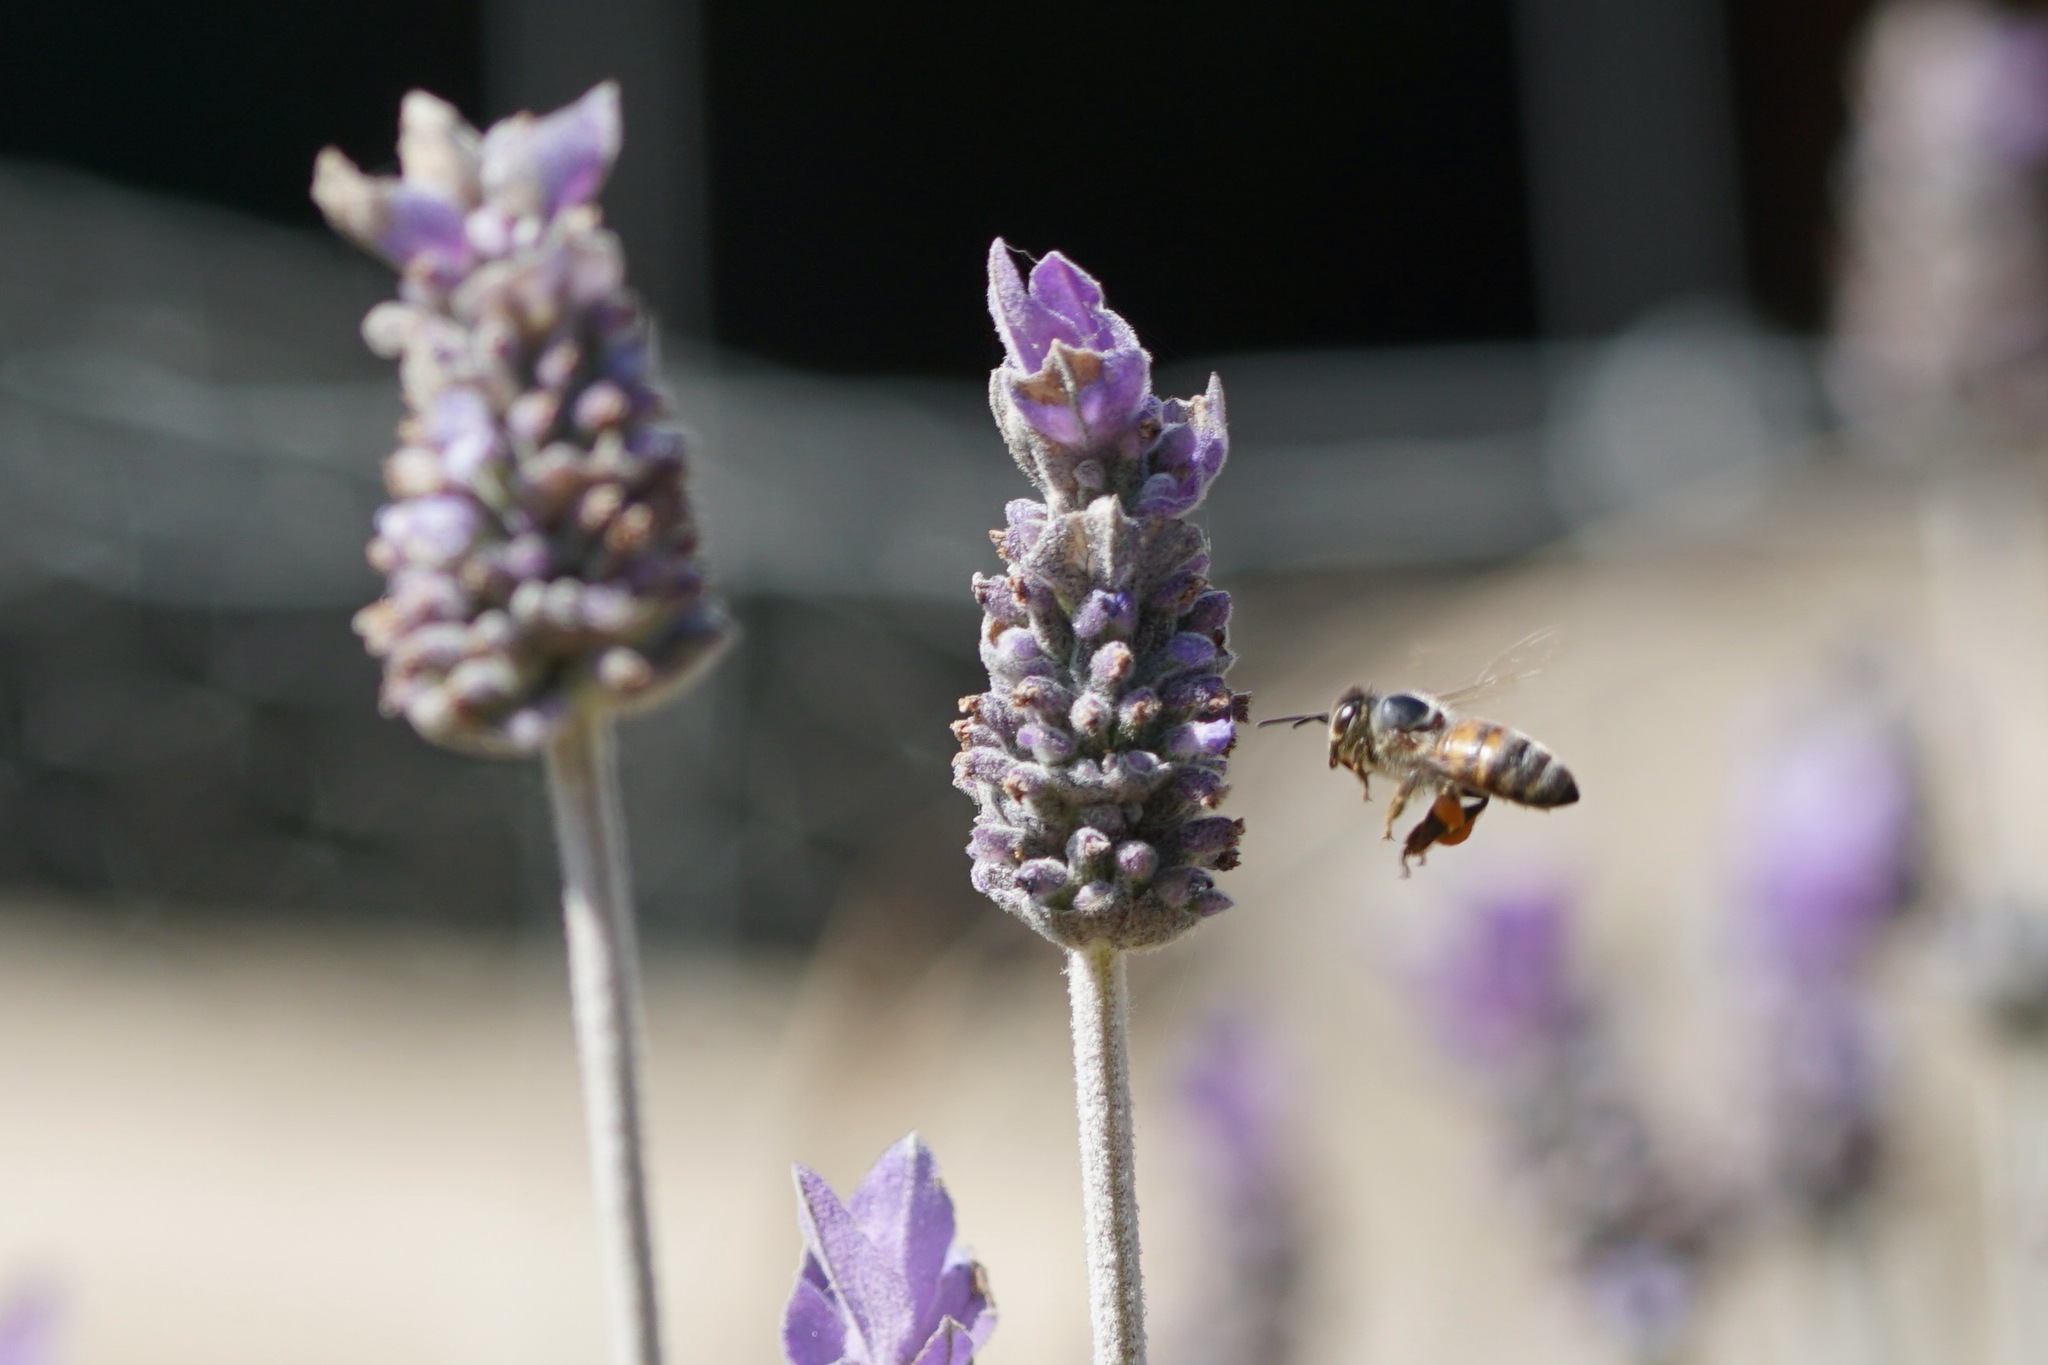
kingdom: Animalia
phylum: Arthropoda
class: Insecta
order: Hymenoptera
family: Apidae
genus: Apis
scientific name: Apis mellifera
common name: Honey bee
